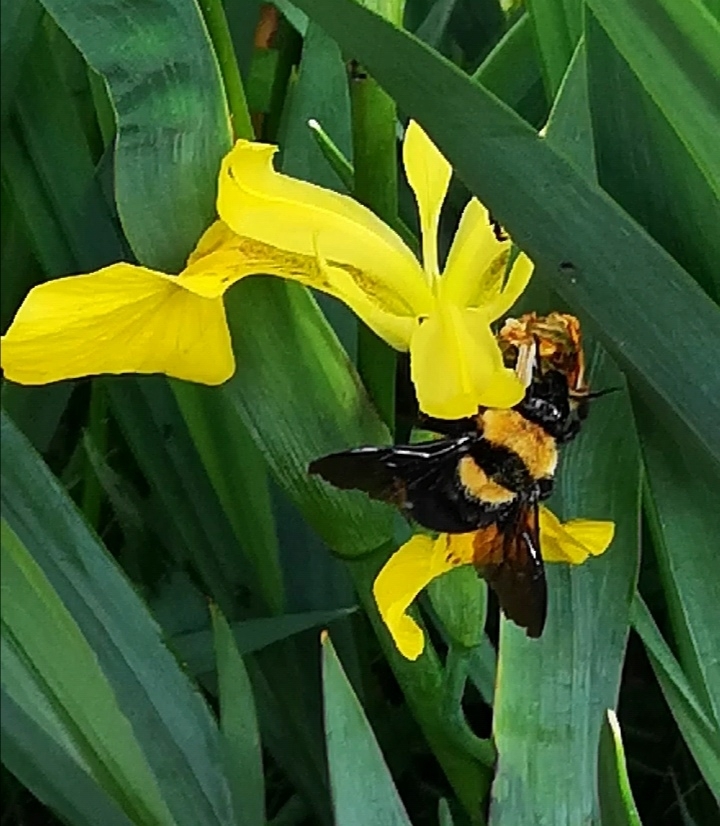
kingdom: Animalia
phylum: Arthropoda
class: Insecta
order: Hymenoptera
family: Apidae
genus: Bombus
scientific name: Bombus argillaceus
